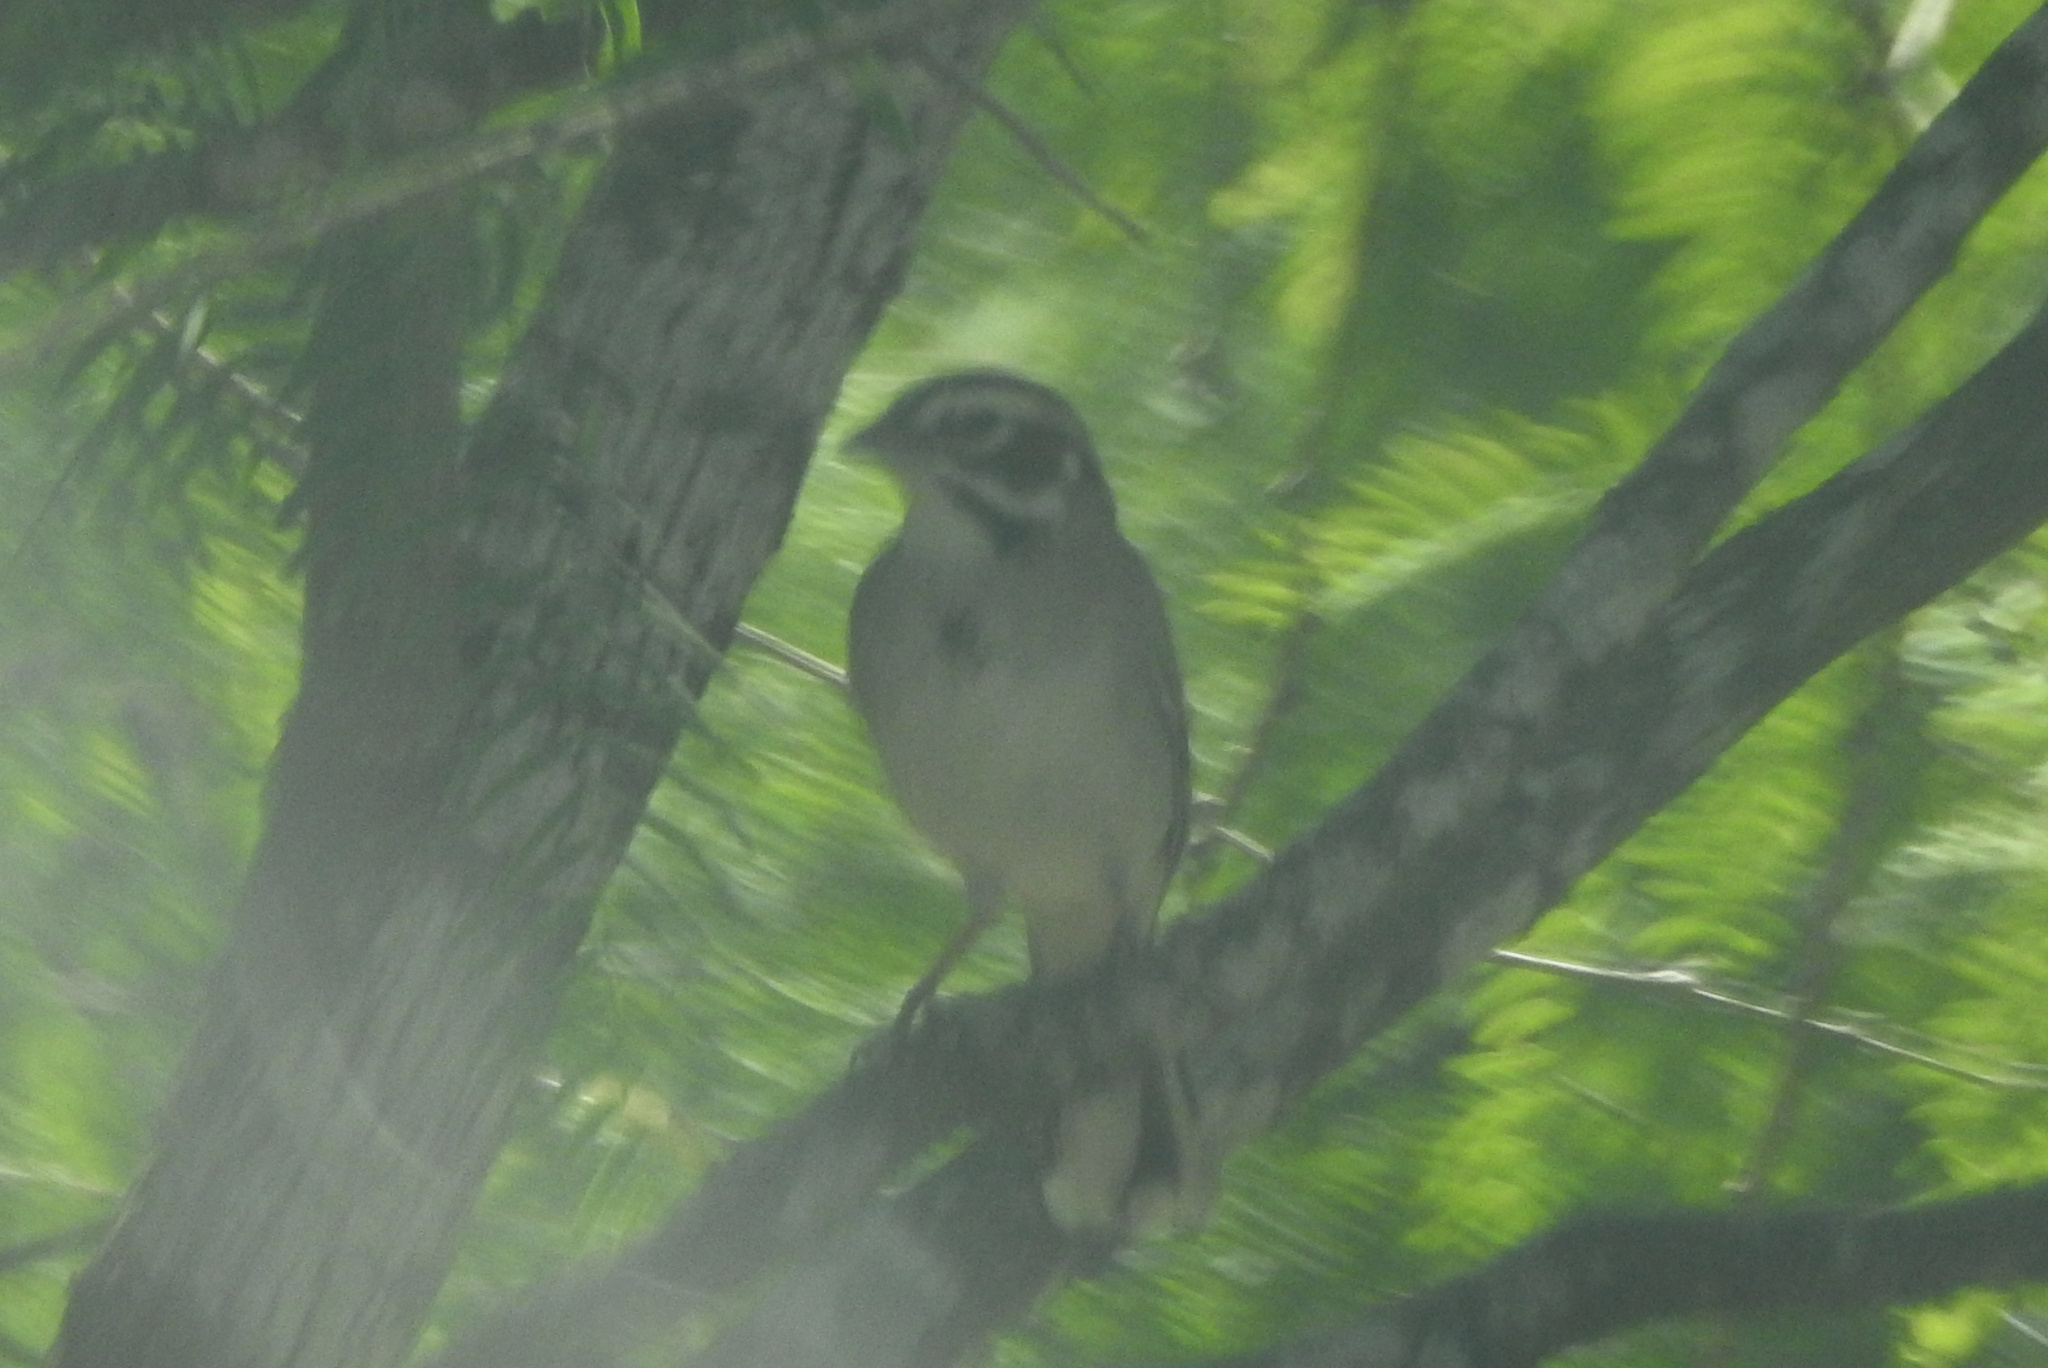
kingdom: Animalia
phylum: Chordata
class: Aves
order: Passeriformes
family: Passerellidae
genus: Chondestes
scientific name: Chondestes grammacus
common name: Lark sparrow
